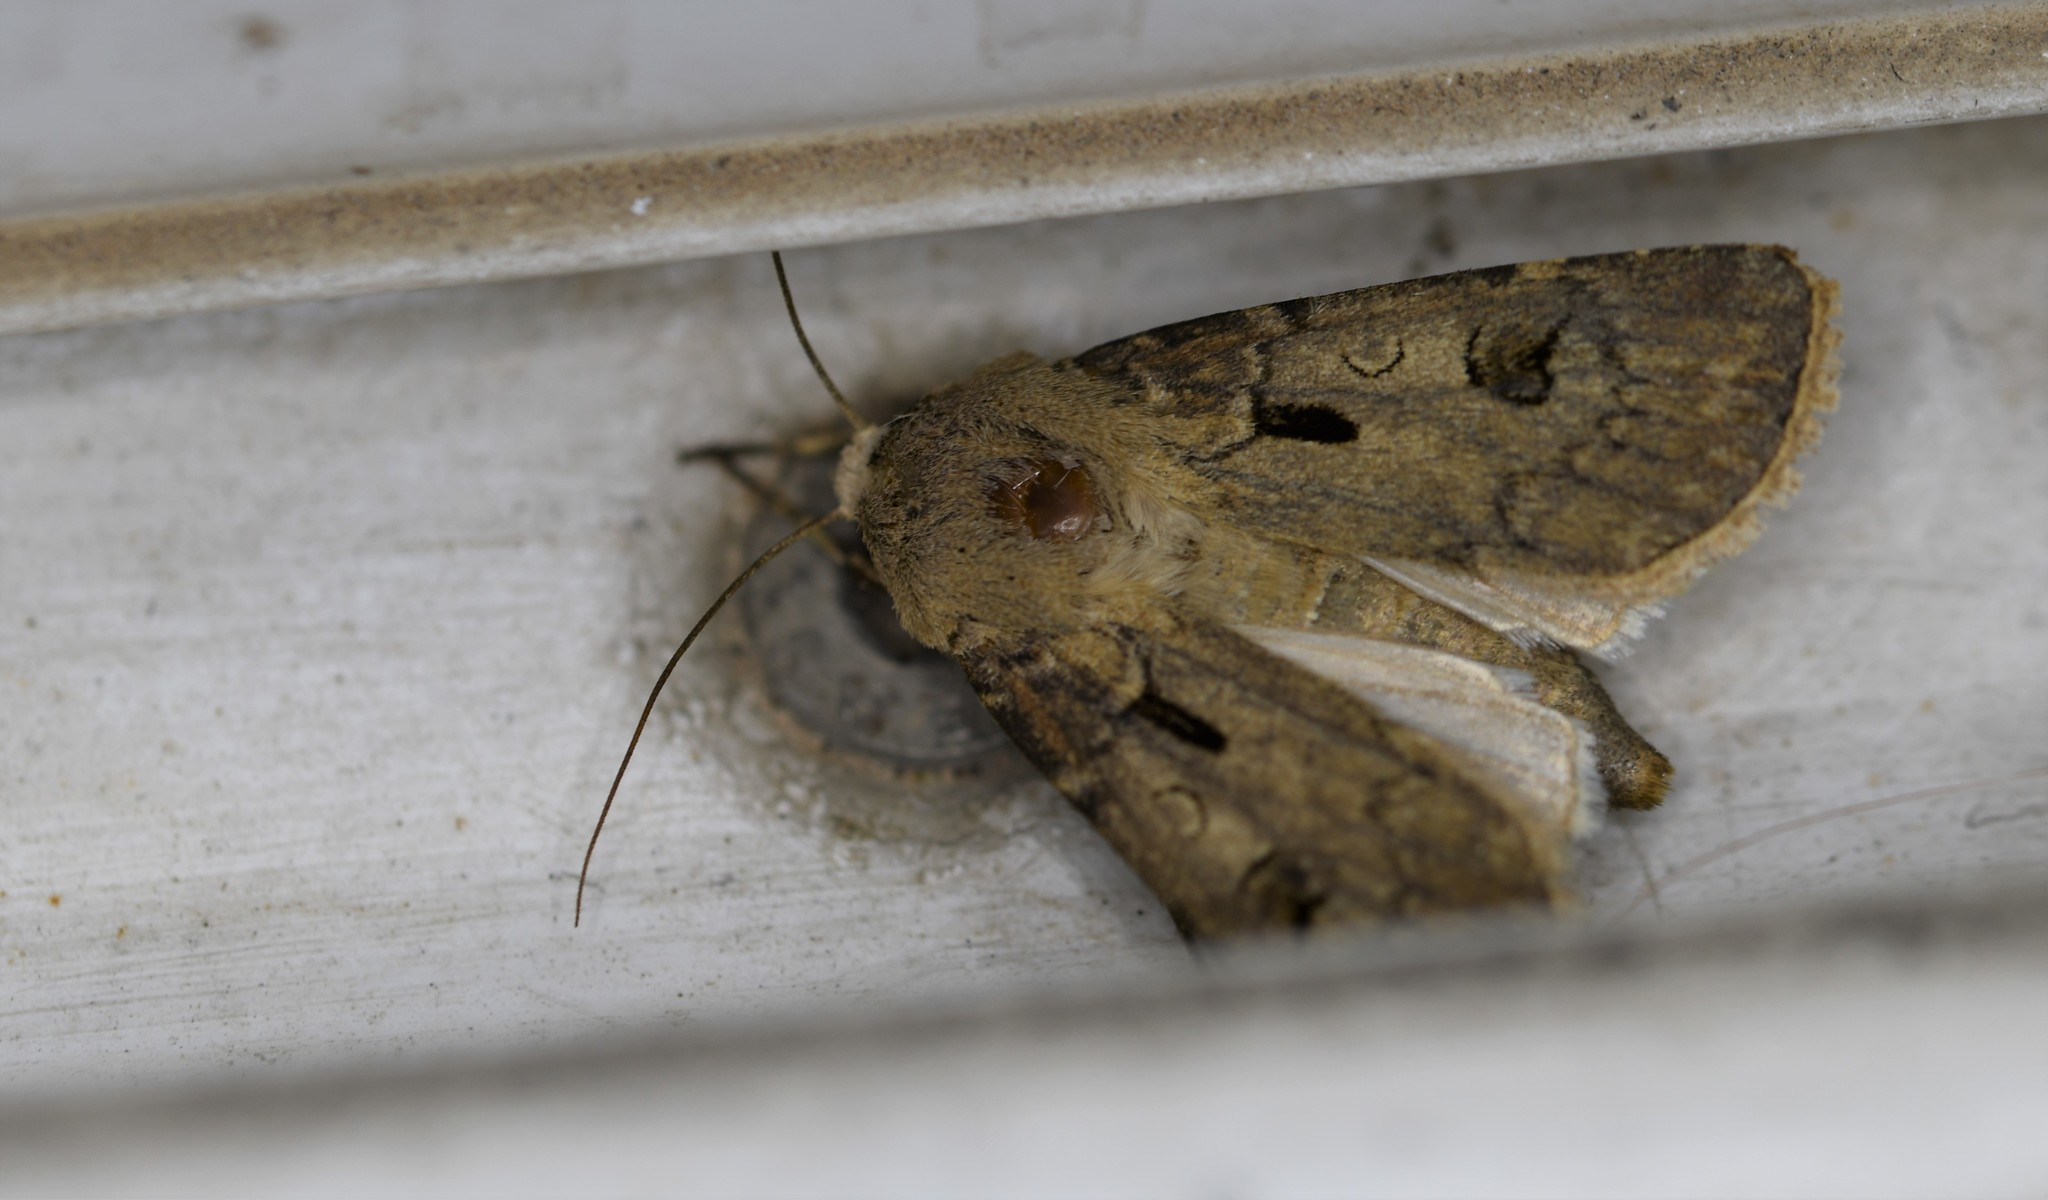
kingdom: Animalia
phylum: Arthropoda
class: Insecta
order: Lepidoptera
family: Noctuidae
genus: Agrotis
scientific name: Agrotis exclamationis
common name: Heart and dart
